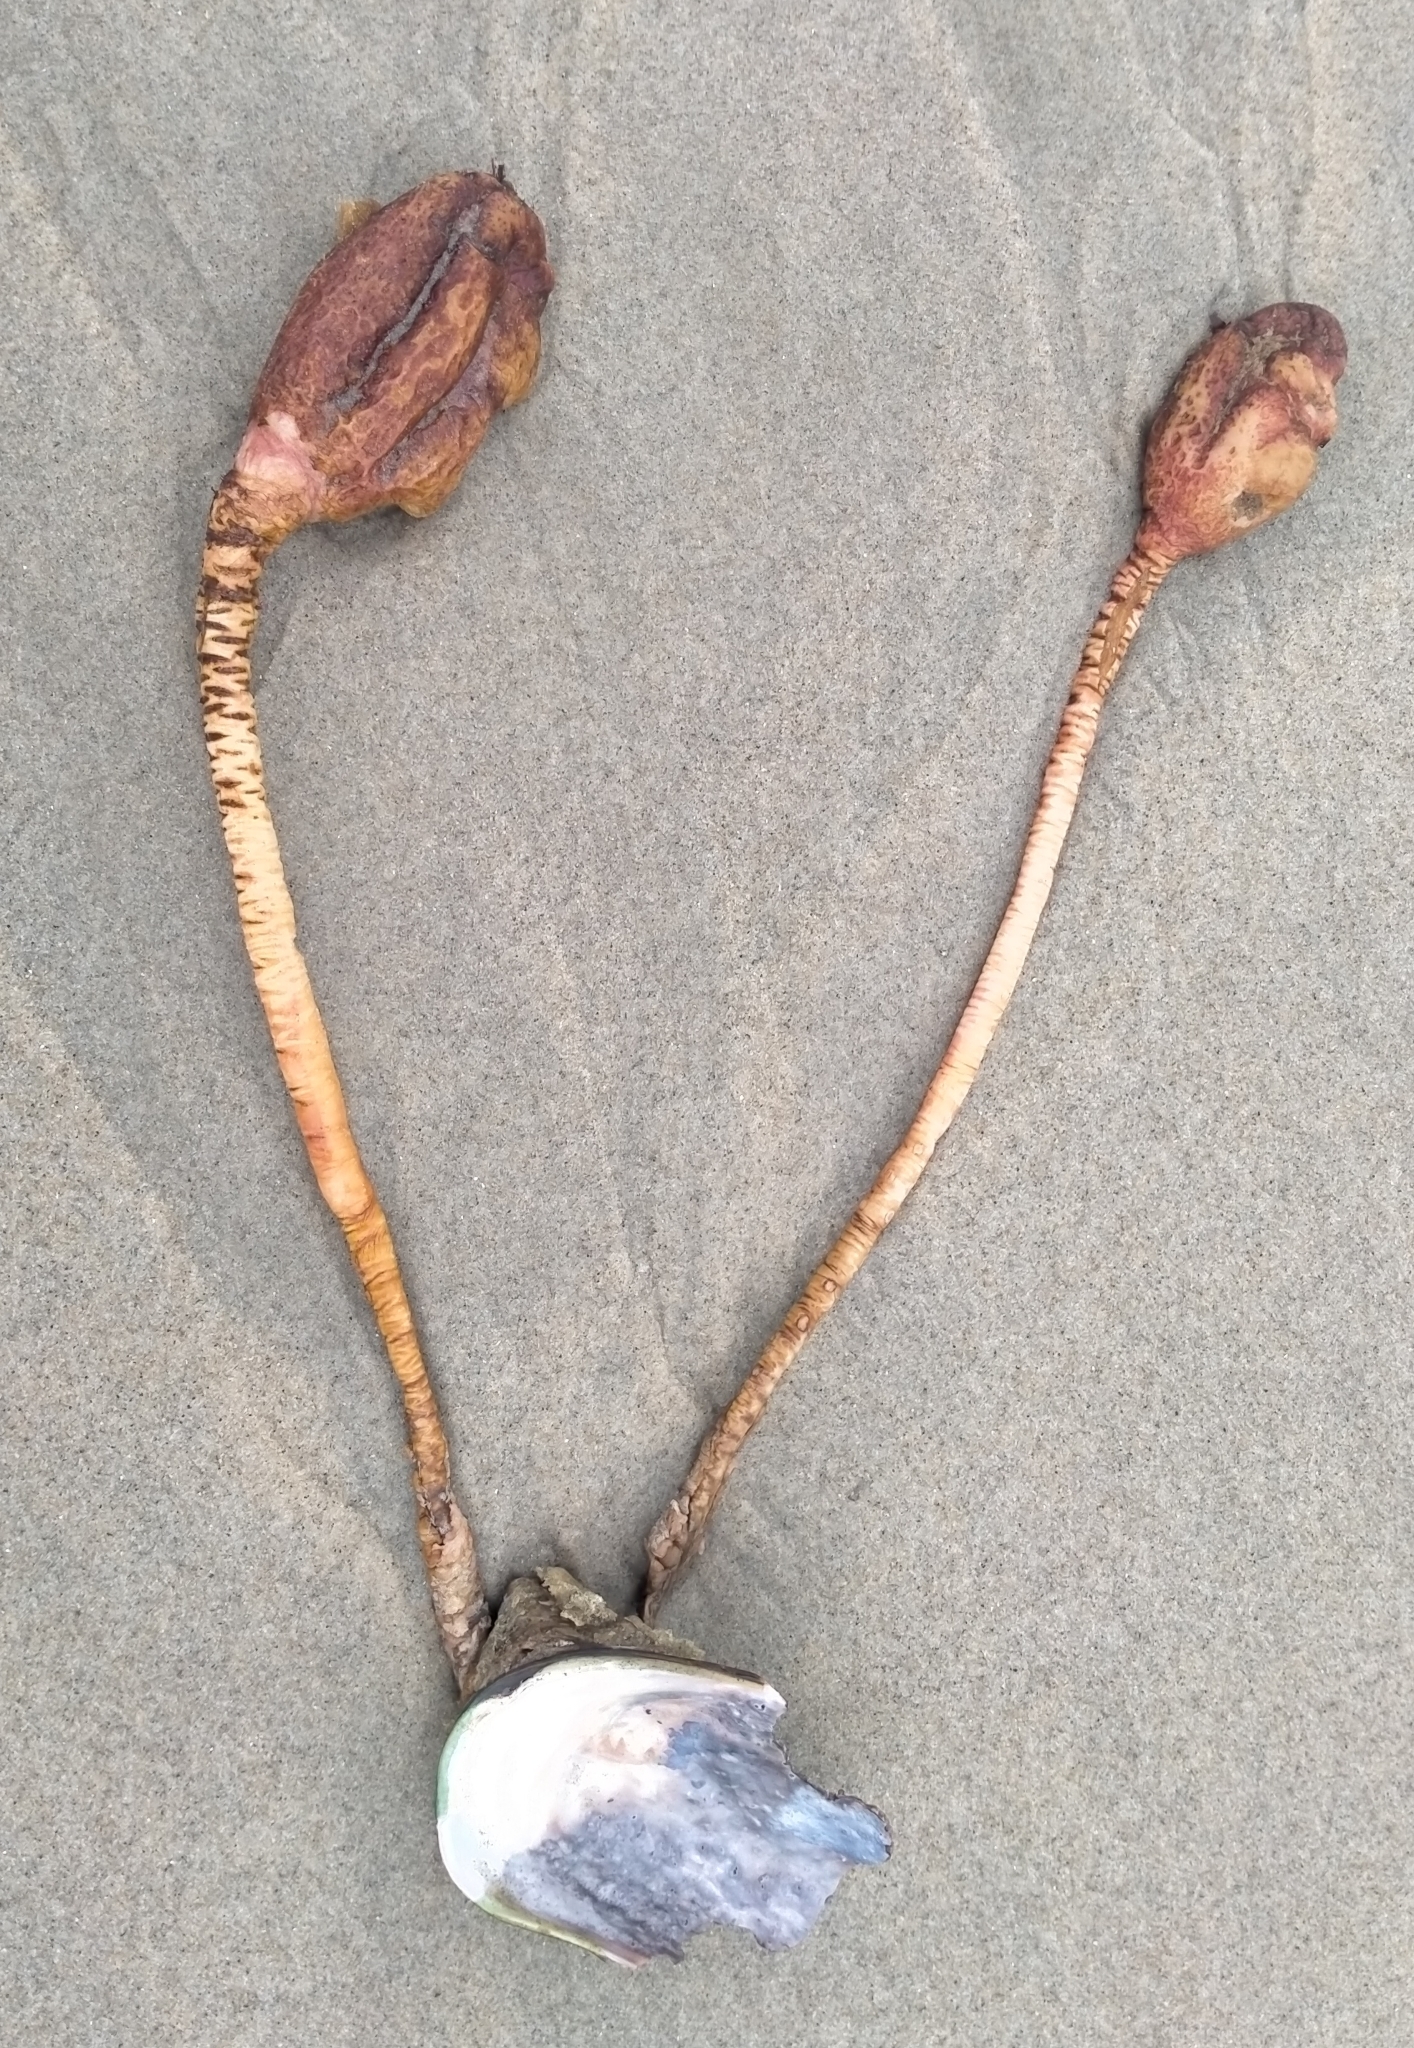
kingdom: Animalia
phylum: Chordata
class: Ascidiacea
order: Stolidobranchia
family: Pyuridae
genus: Pyura
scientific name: Pyura pachydermatina
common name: Sea tulip
